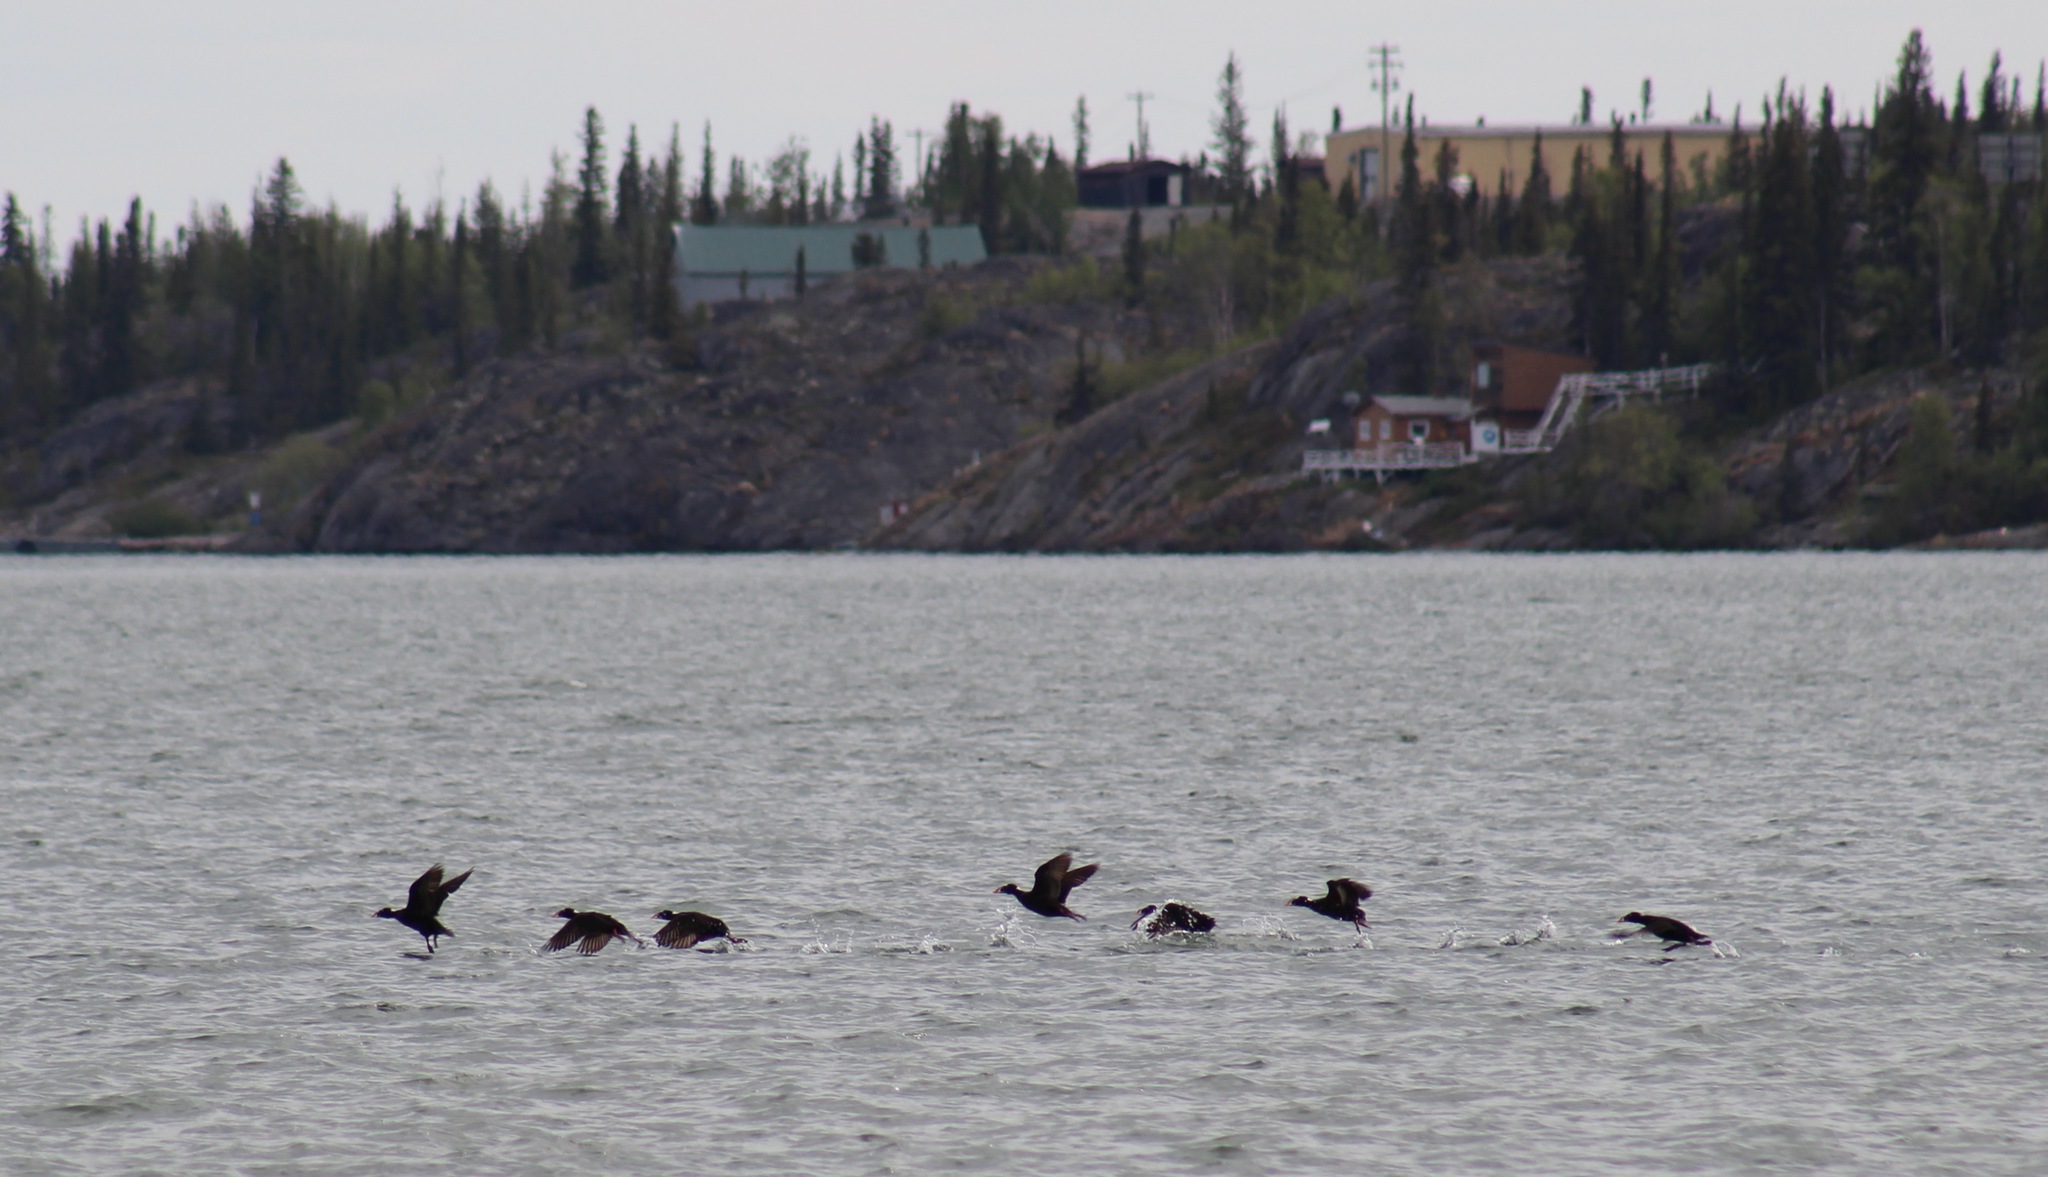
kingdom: Animalia
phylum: Chordata
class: Aves
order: Anseriformes
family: Anatidae
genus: Melanitta
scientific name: Melanitta perspicillata
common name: Surf scoter
